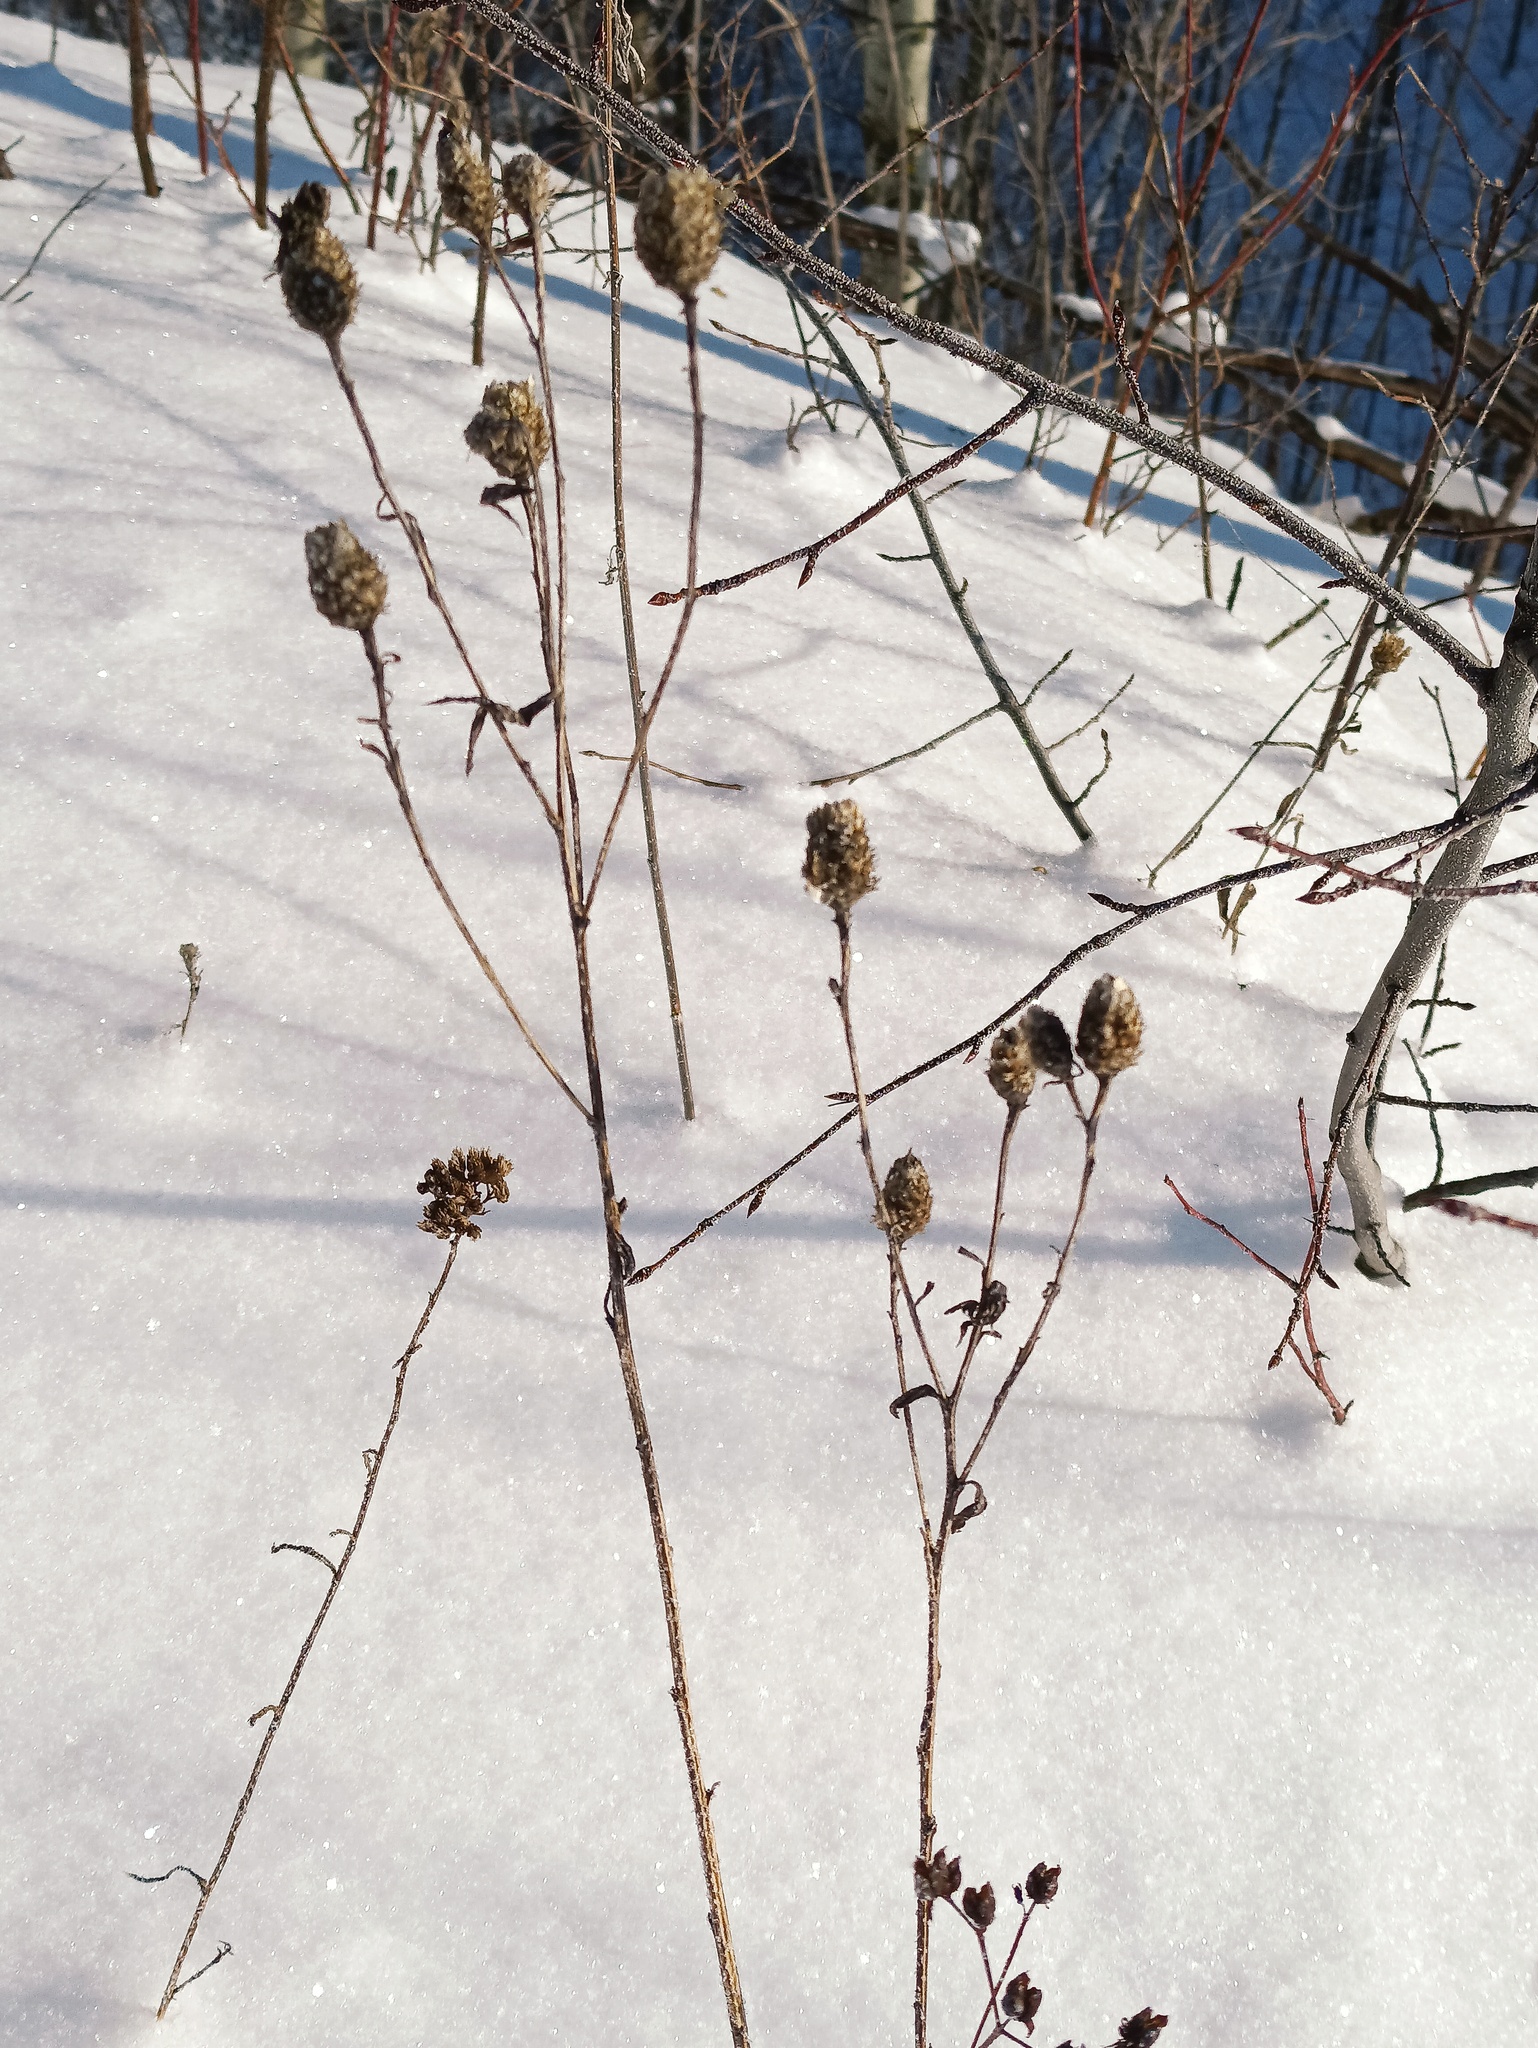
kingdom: Plantae
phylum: Tracheophyta
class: Magnoliopsida
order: Asterales
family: Asteraceae
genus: Centaurea
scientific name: Centaurea jacea
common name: Brown knapweed
